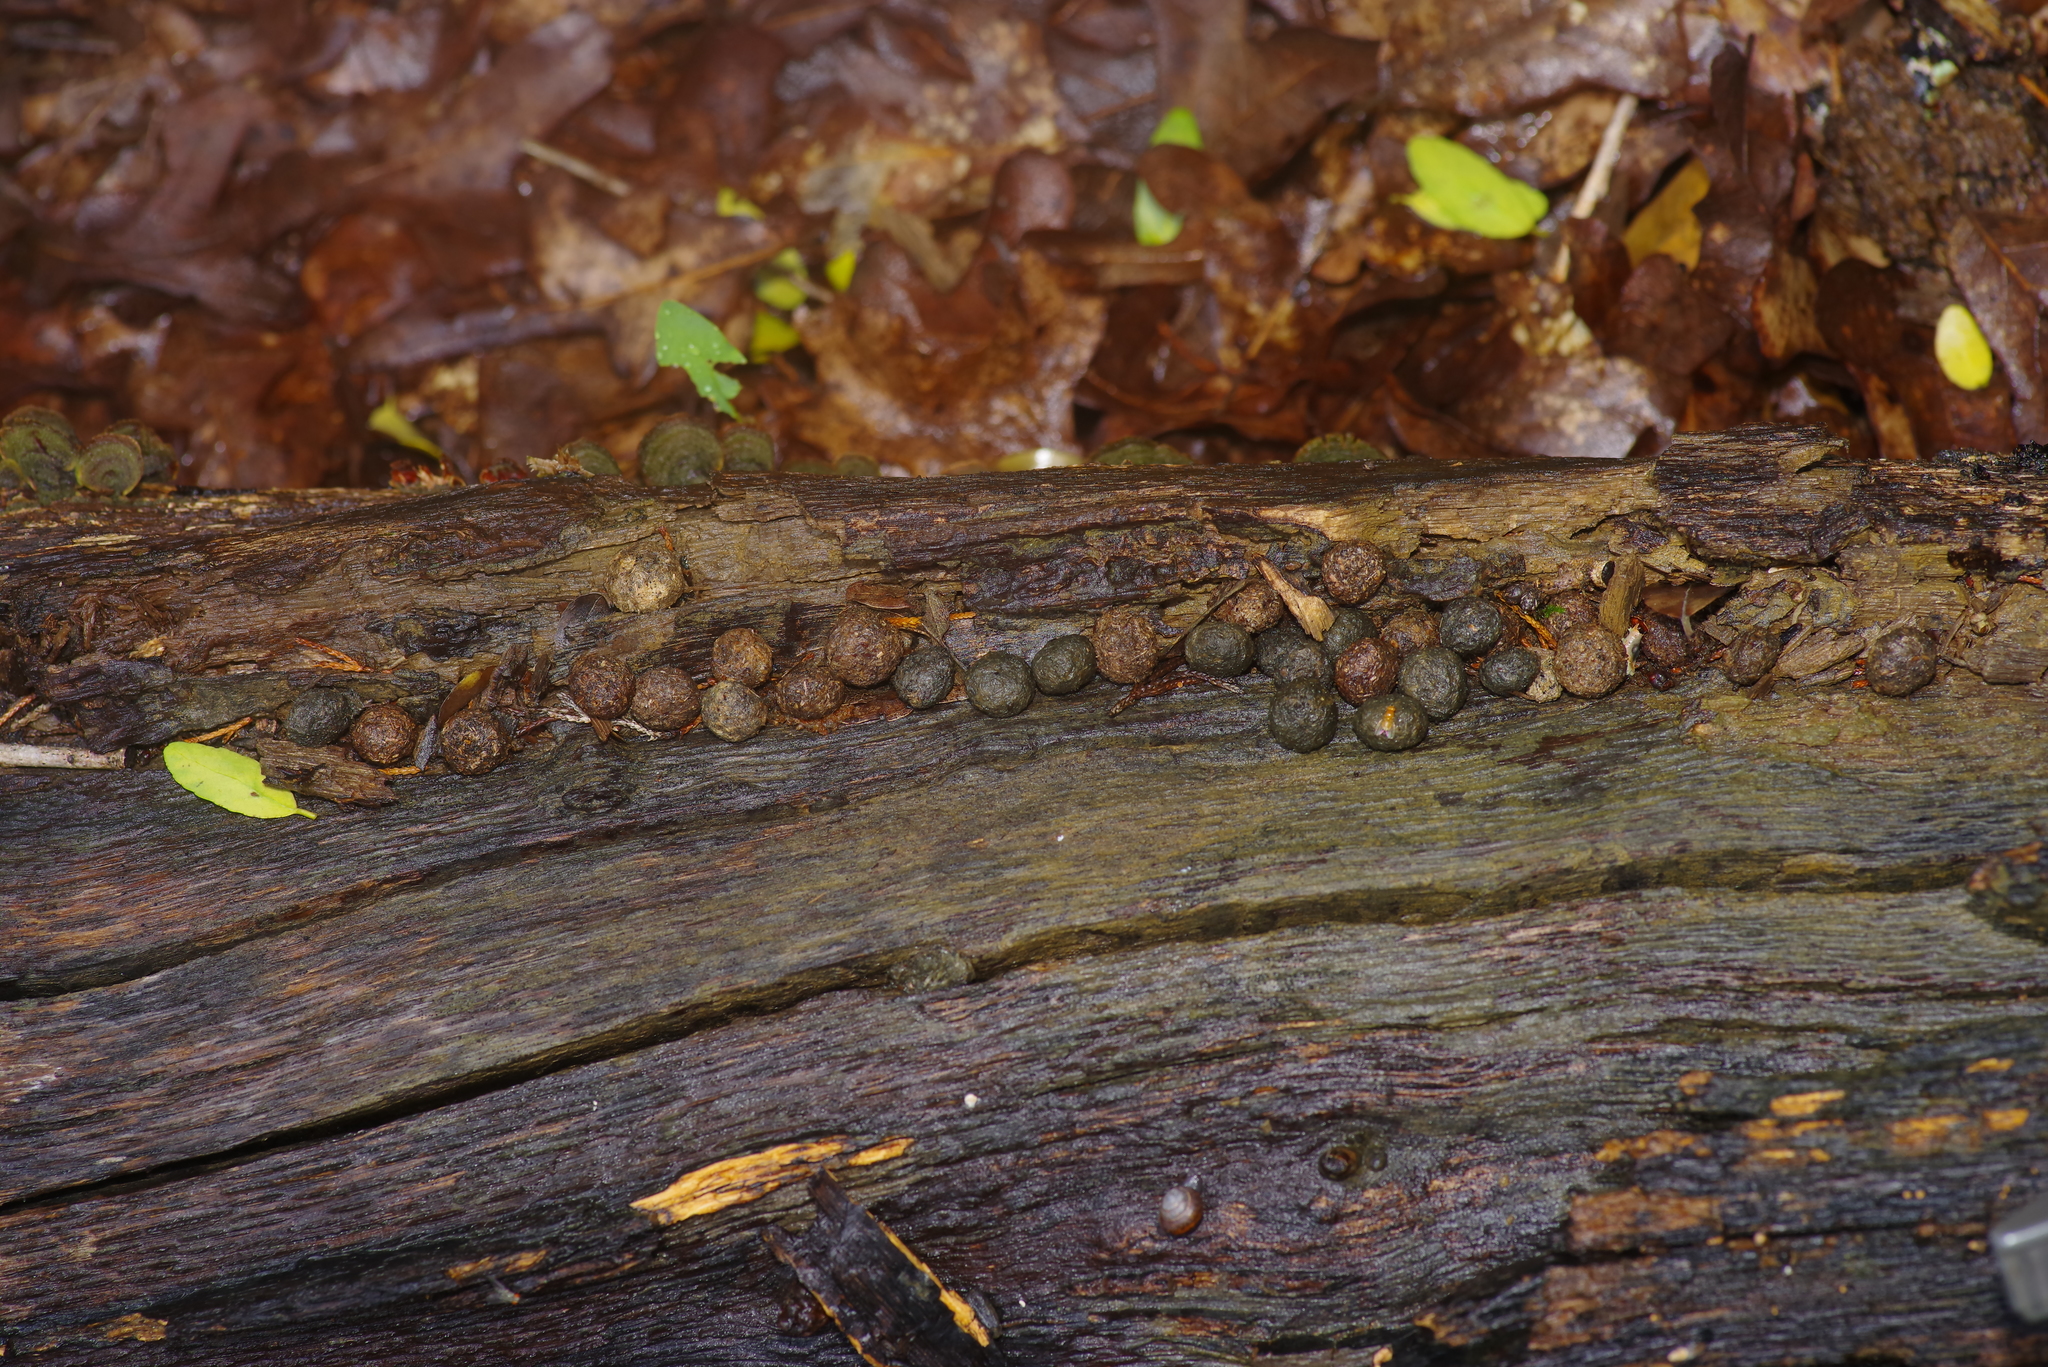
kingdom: Animalia
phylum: Chordata
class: Mammalia
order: Lagomorpha
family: Leporidae
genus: Sylvilagus
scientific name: Sylvilagus aquaticus
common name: Swamp rabbit
